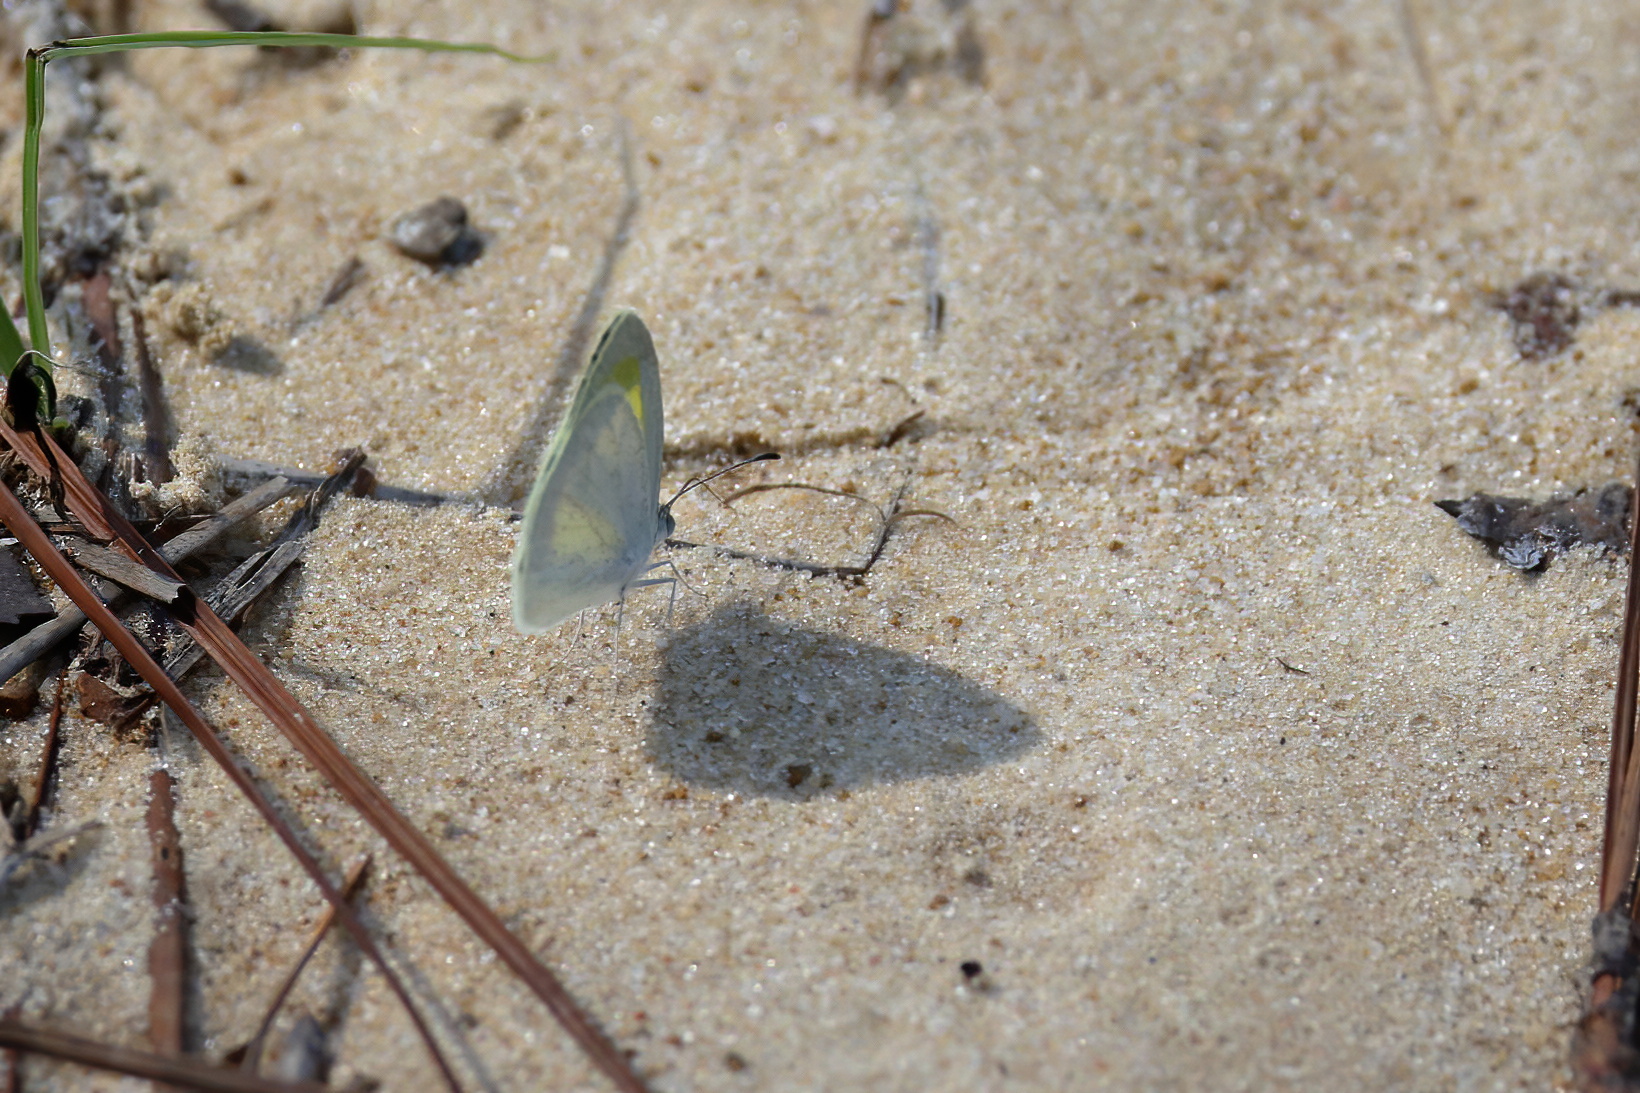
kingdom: Animalia
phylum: Arthropoda
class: Insecta
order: Lepidoptera
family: Pieridae
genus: Eurema
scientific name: Eurema daira
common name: Barred sulphur
